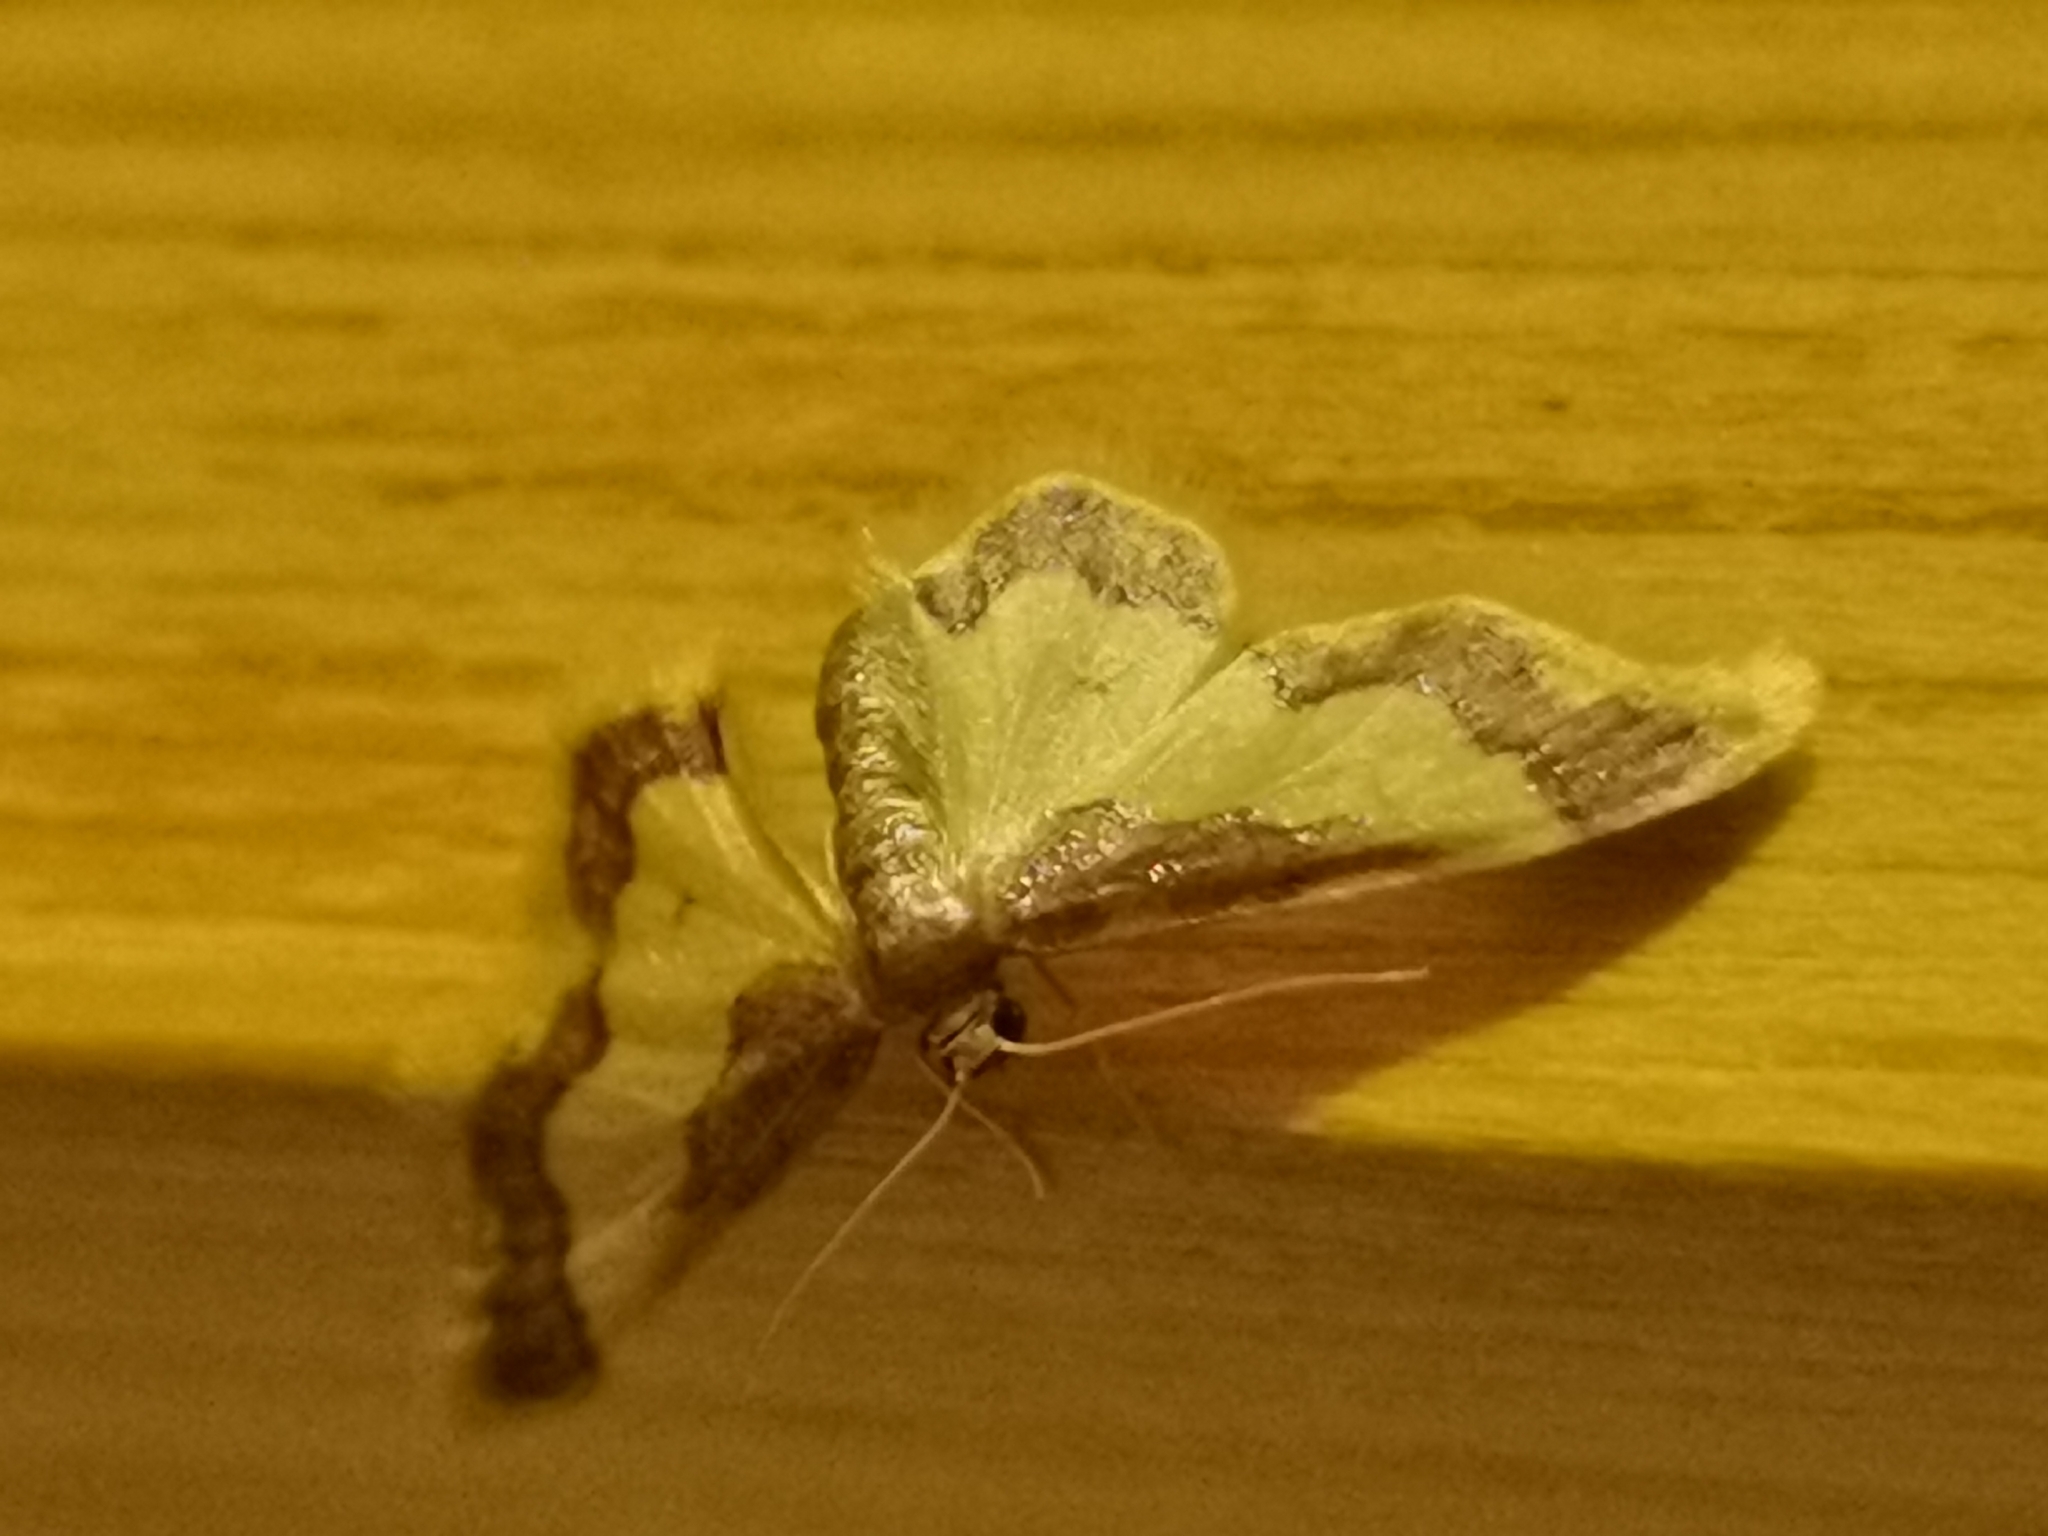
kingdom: Animalia
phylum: Arthropoda
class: Insecta
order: Lepidoptera
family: Geometridae
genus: Idaea
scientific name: Idaea basinta
